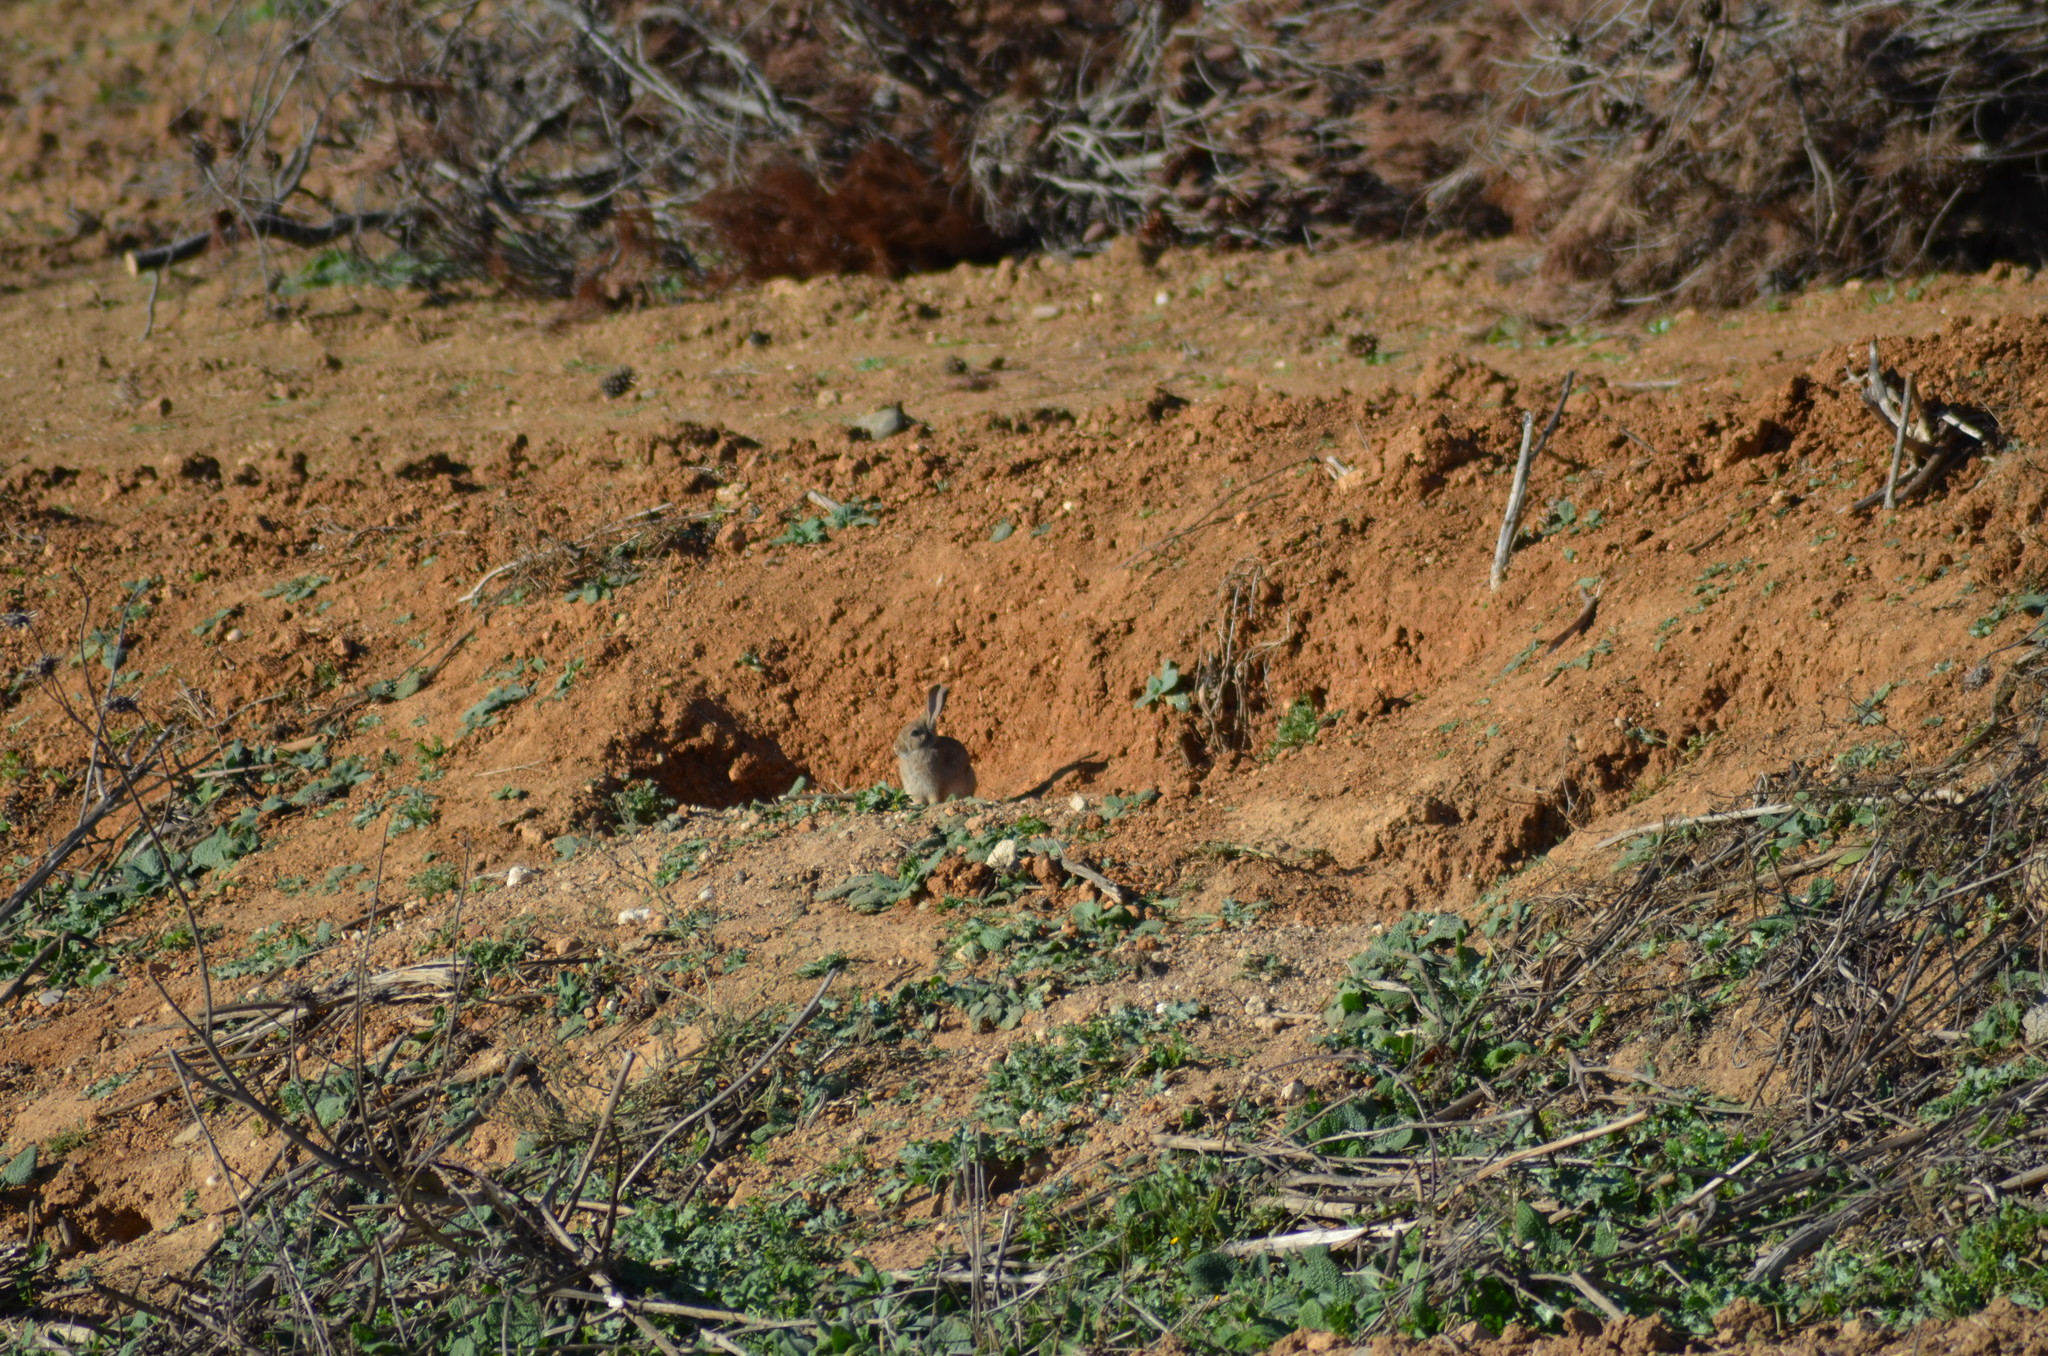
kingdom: Animalia
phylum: Chordata
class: Mammalia
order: Lagomorpha
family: Leporidae
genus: Oryctolagus
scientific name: Oryctolagus cuniculus
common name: European rabbit
